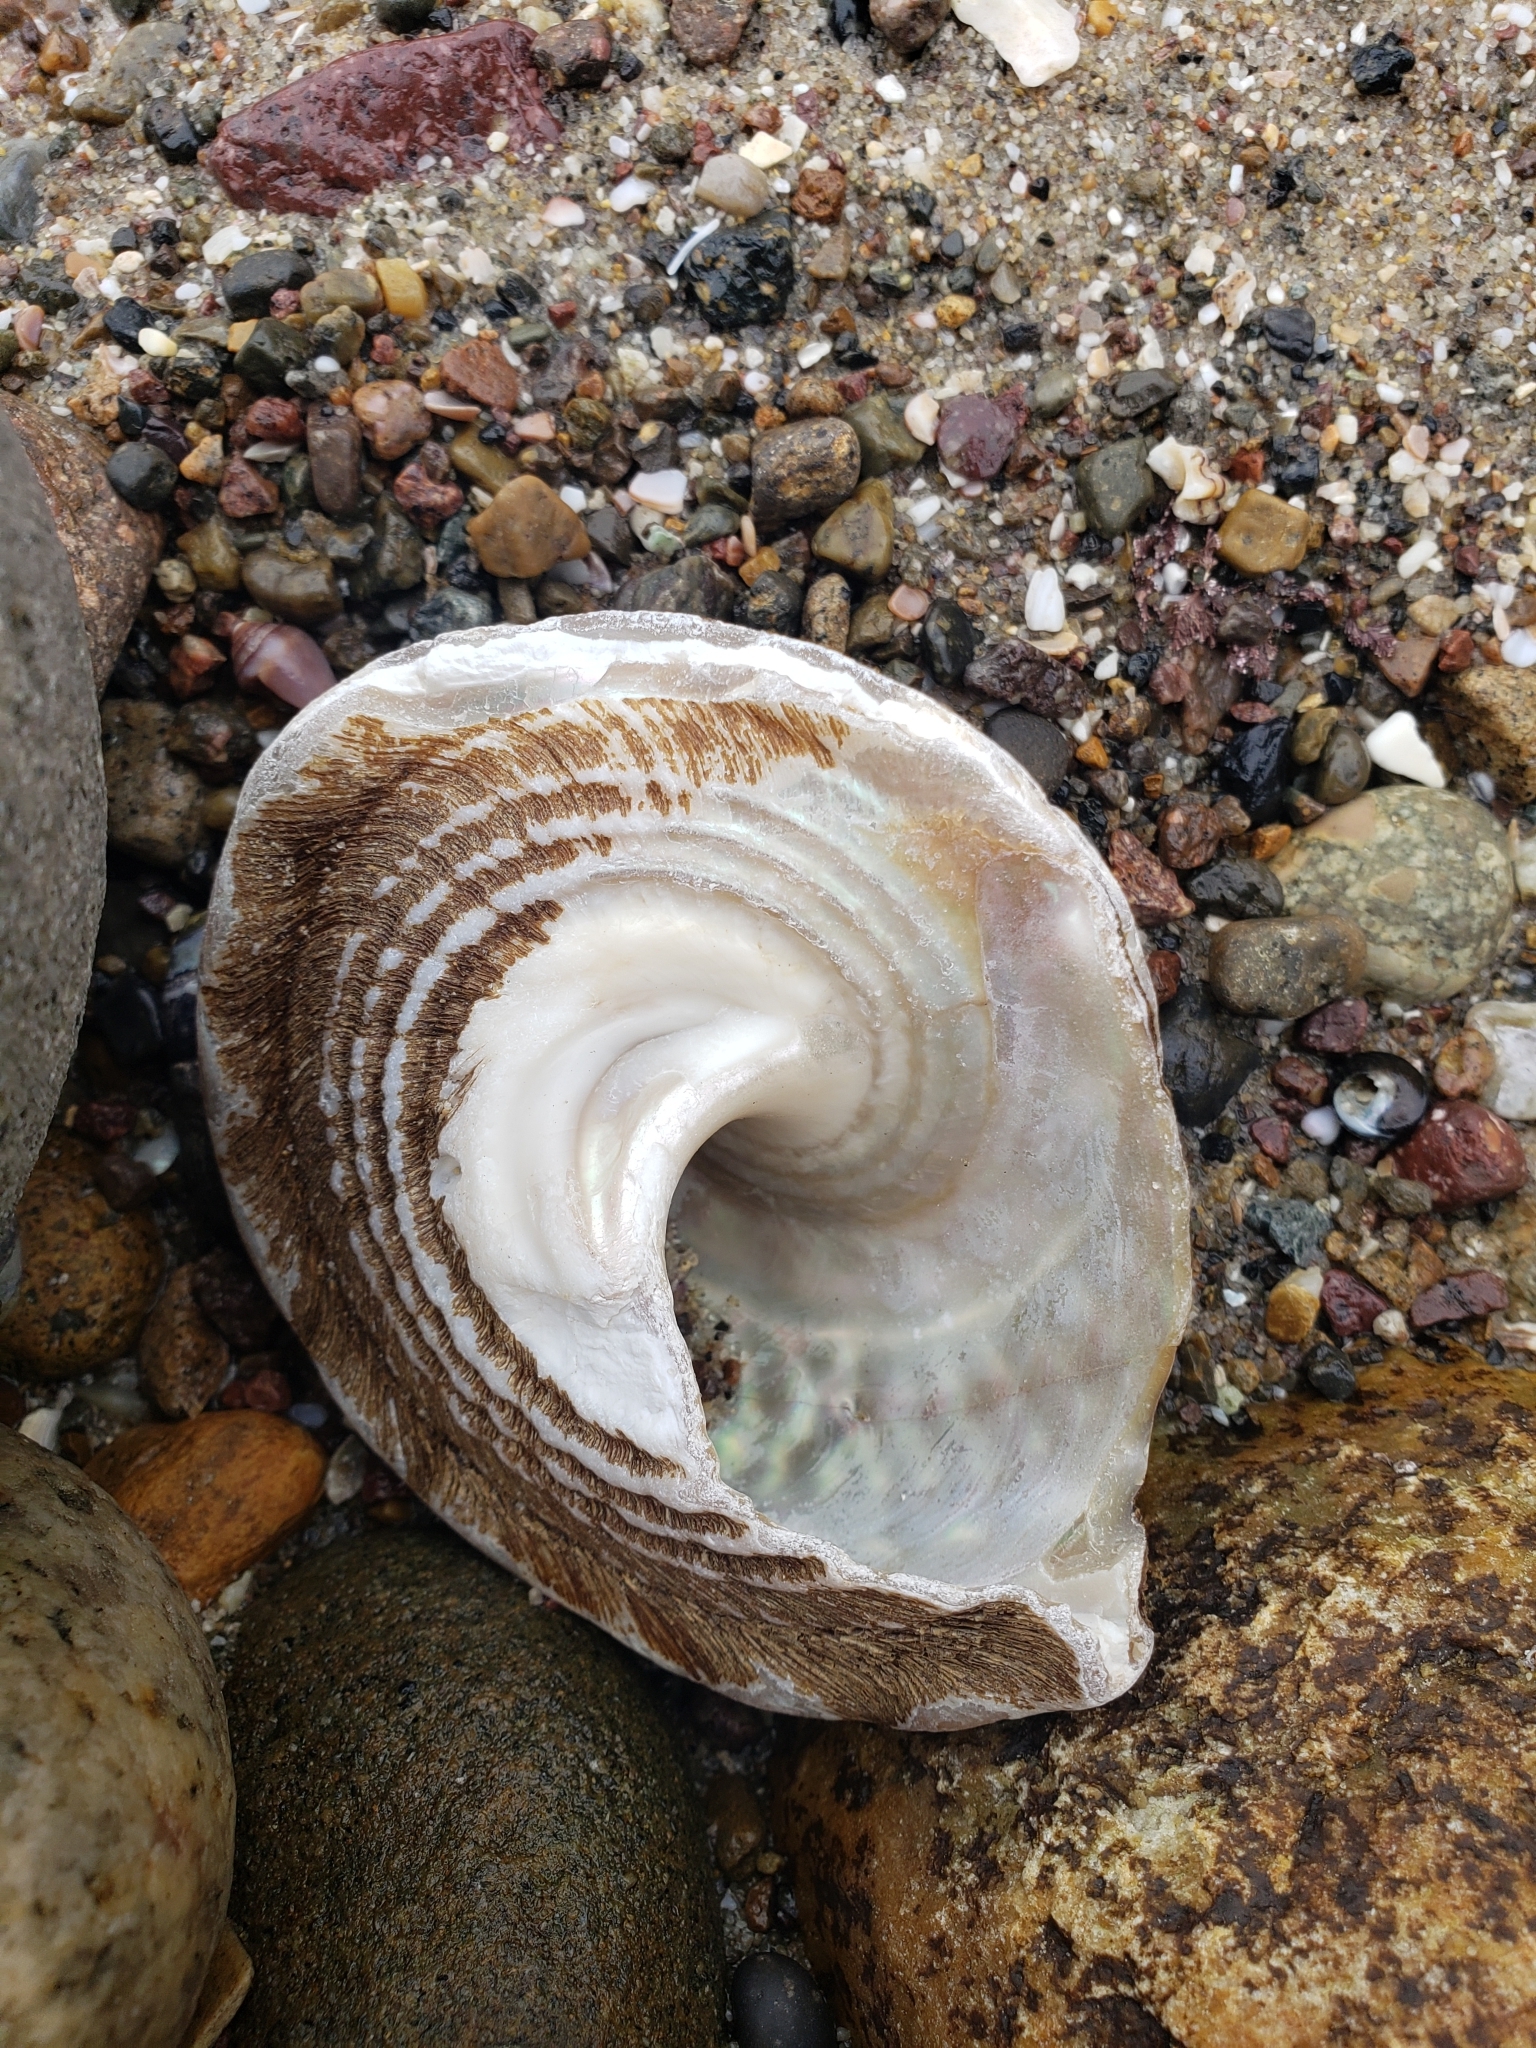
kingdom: Animalia
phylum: Mollusca
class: Gastropoda
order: Trochida
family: Turbinidae
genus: Megastraea
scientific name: Megastraea undosa
